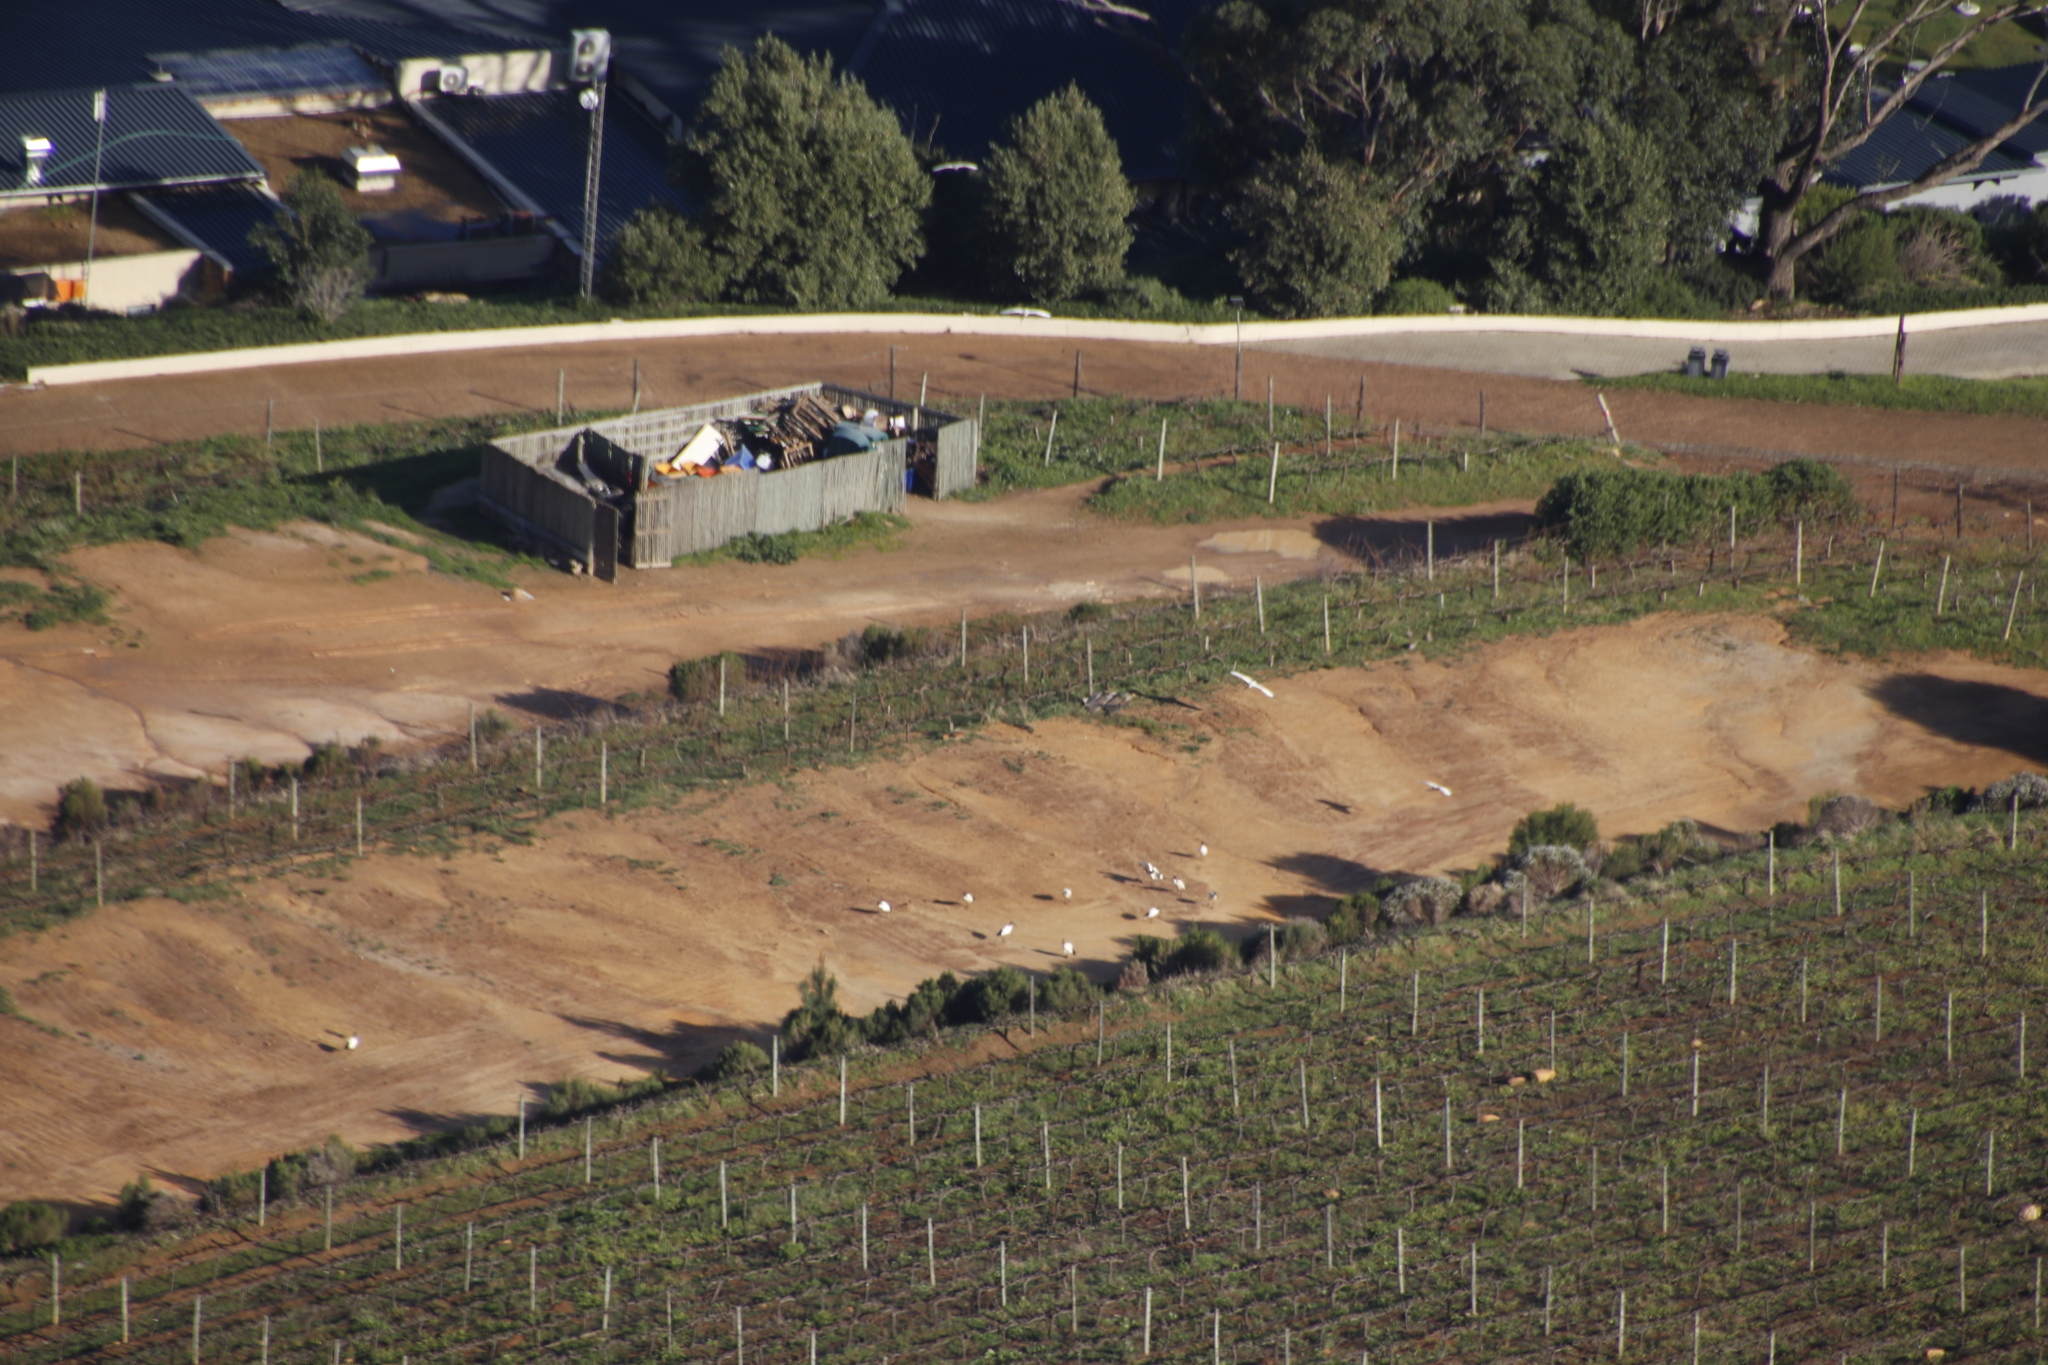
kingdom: Animalia
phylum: Chordata
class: Aves
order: Pelecaniformes
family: Threskiornithidae
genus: Threskiornis
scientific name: Threskiornis aethiopicus
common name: Sacred ibis
